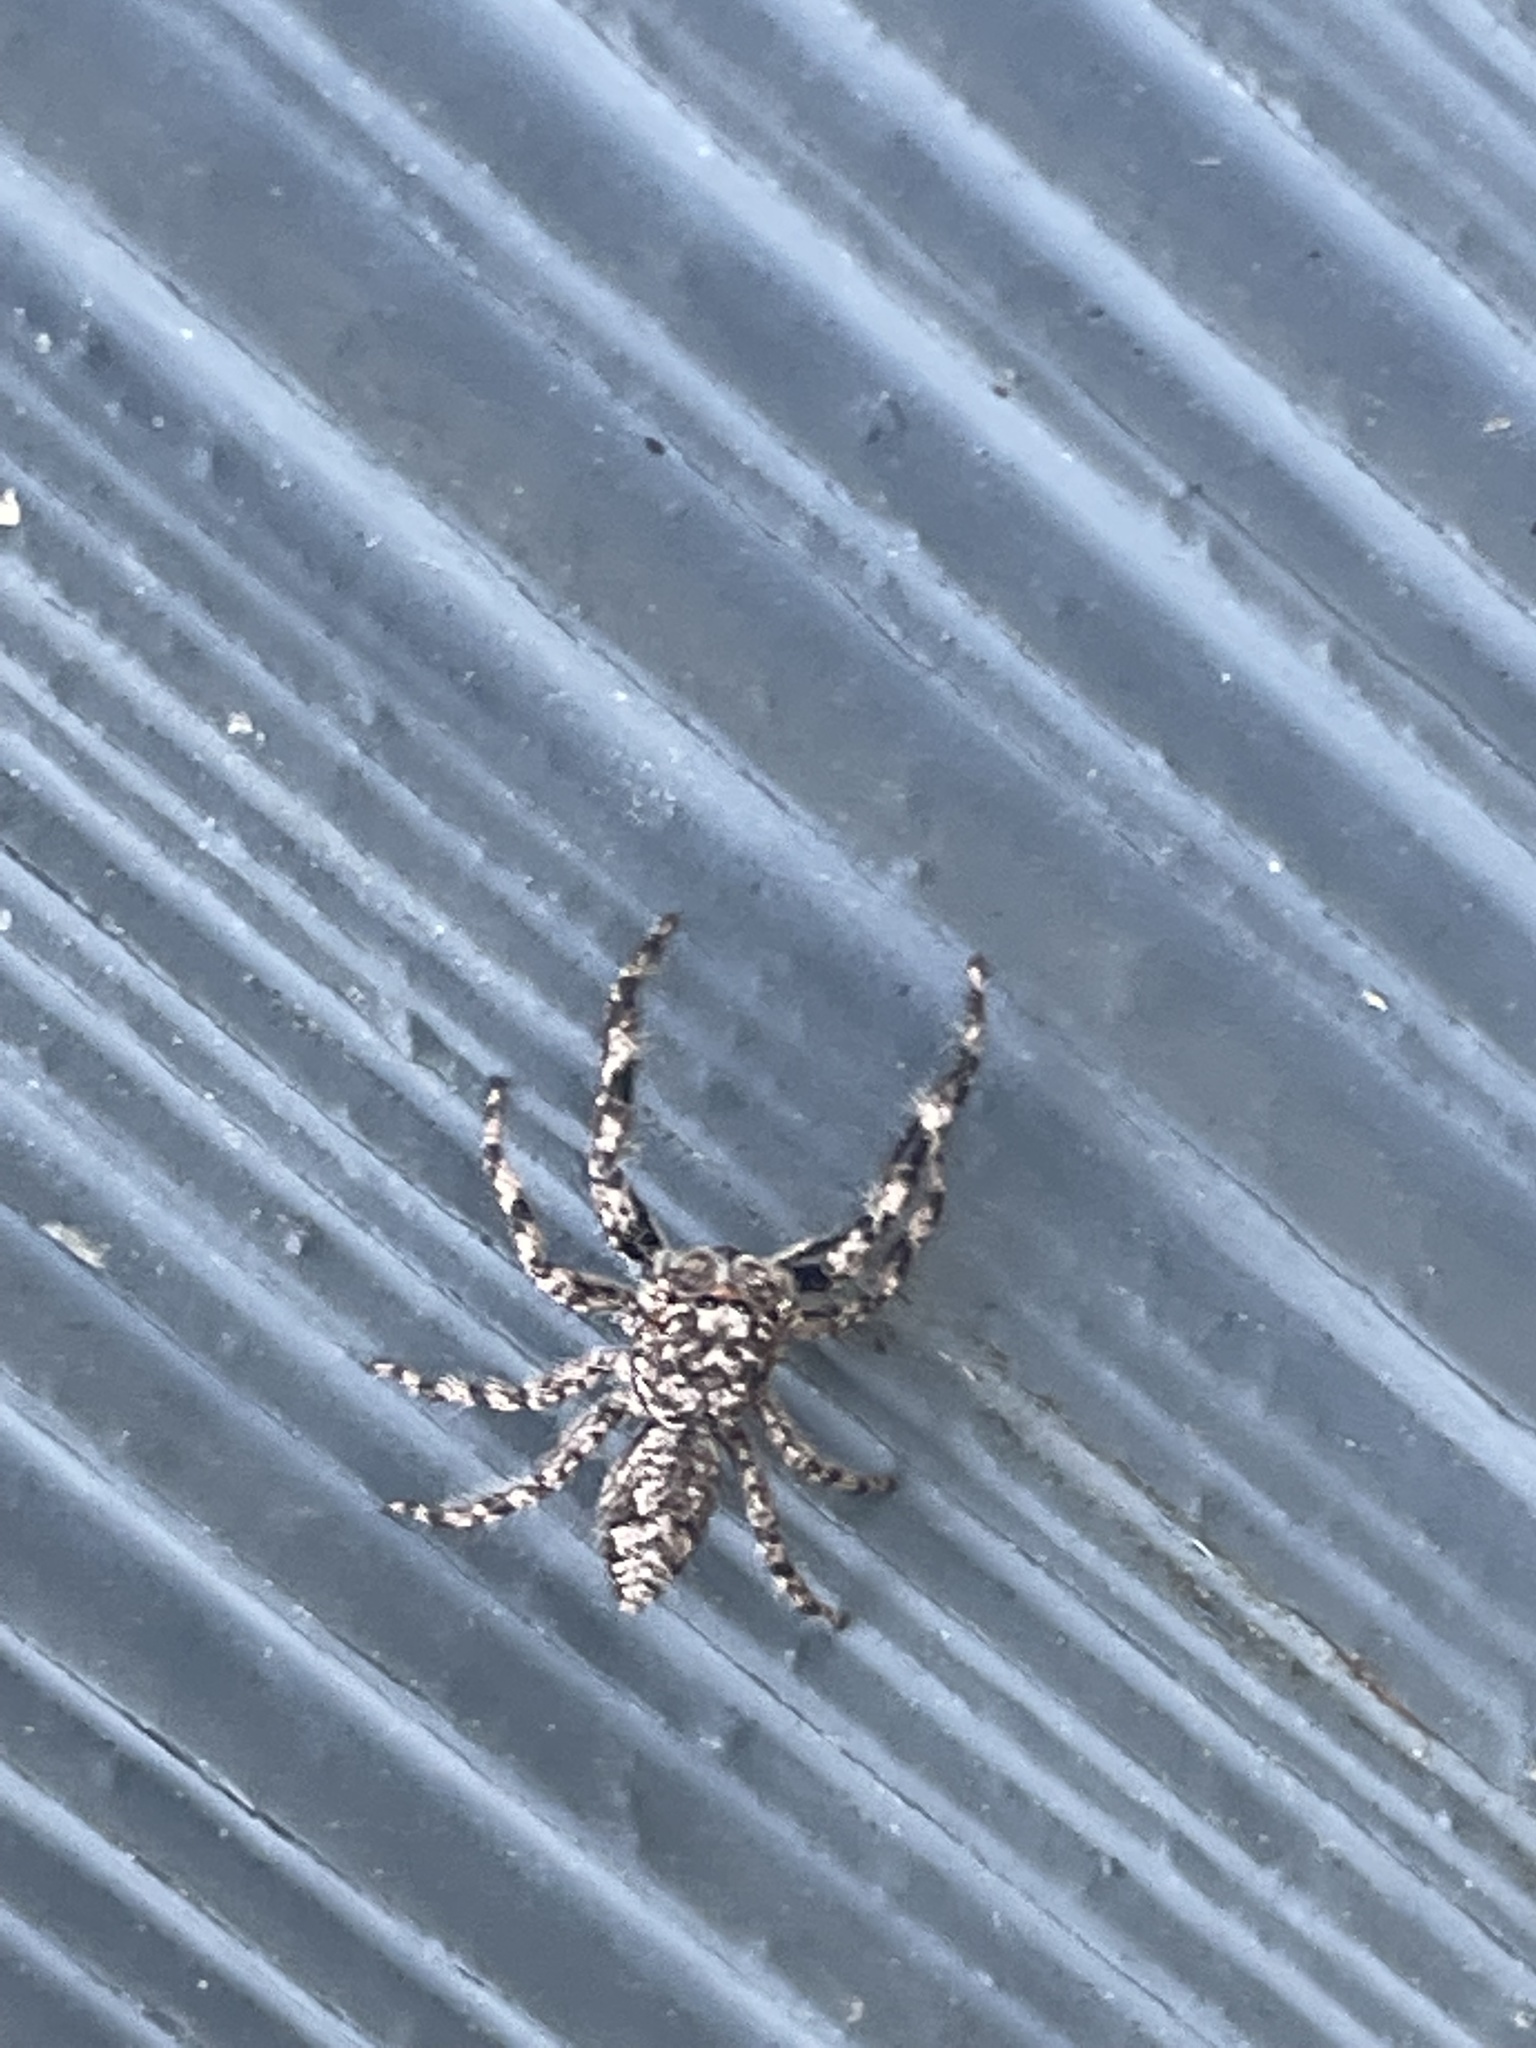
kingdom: Animalia
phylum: Arthropoda
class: Arachnida
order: Araneae
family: Salticidae
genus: Platycryptus
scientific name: Platycryptus undatus
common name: Tan jumping spider
